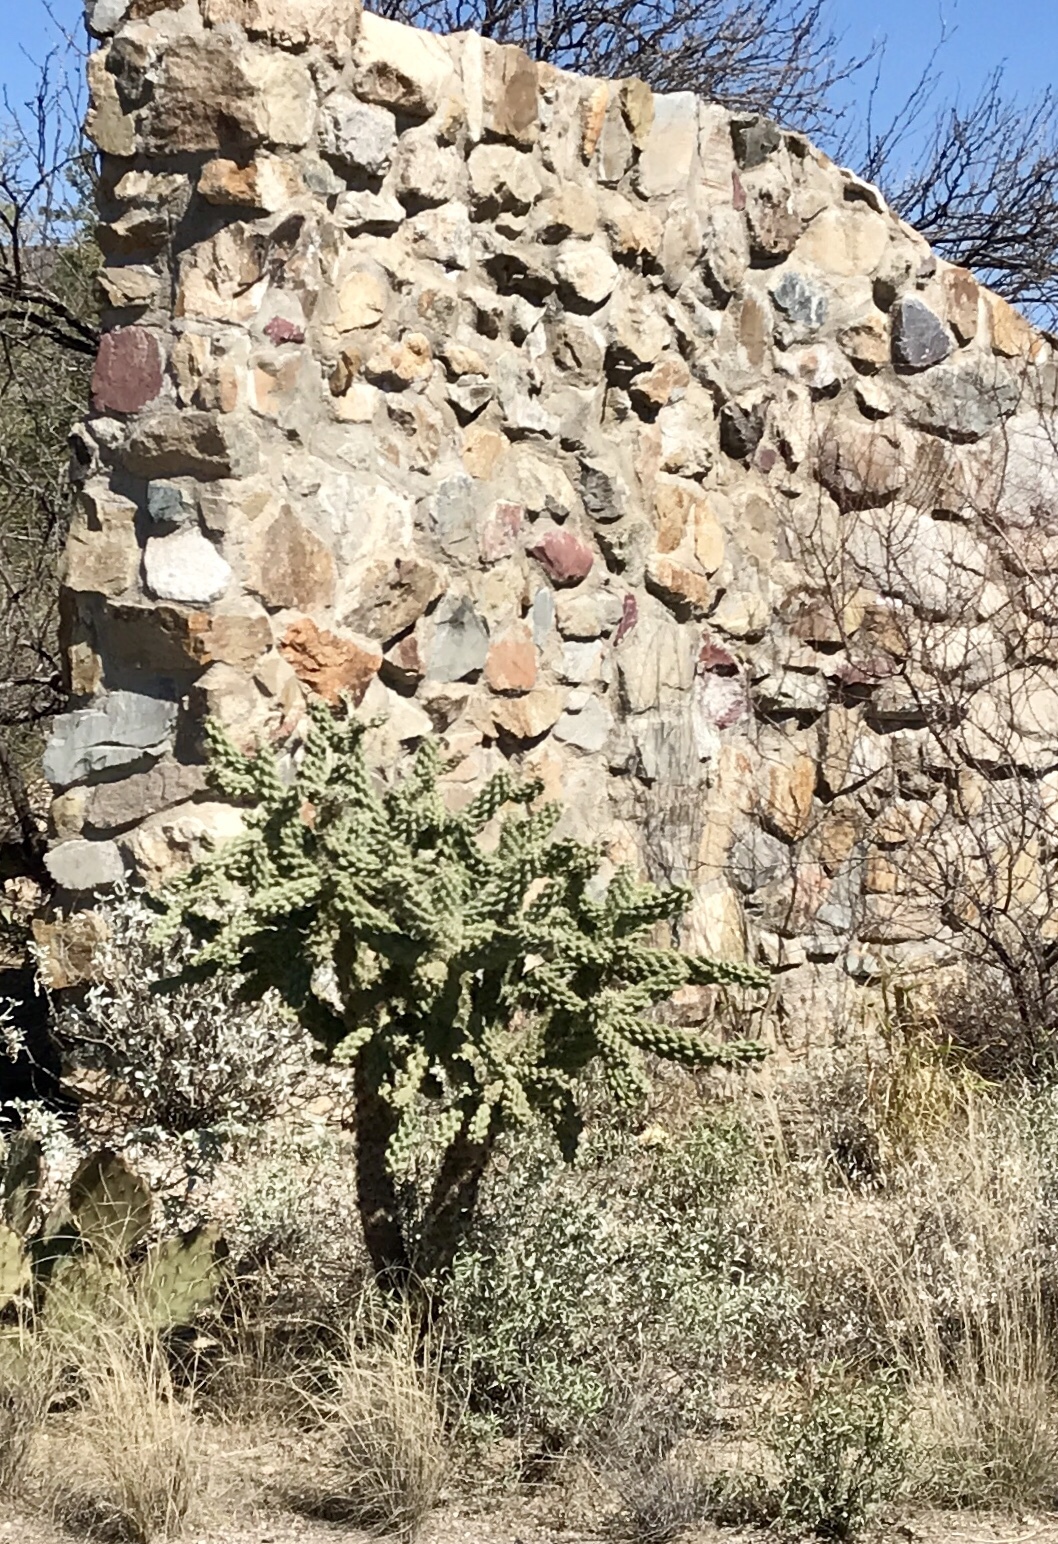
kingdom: Plantae
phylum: Tracheophyta
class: Magnoliopsida
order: Caryophyllales
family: Cactaceae
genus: Cylindropuntia
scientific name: Cylindropuntia fulgida
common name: Jumping cholla
